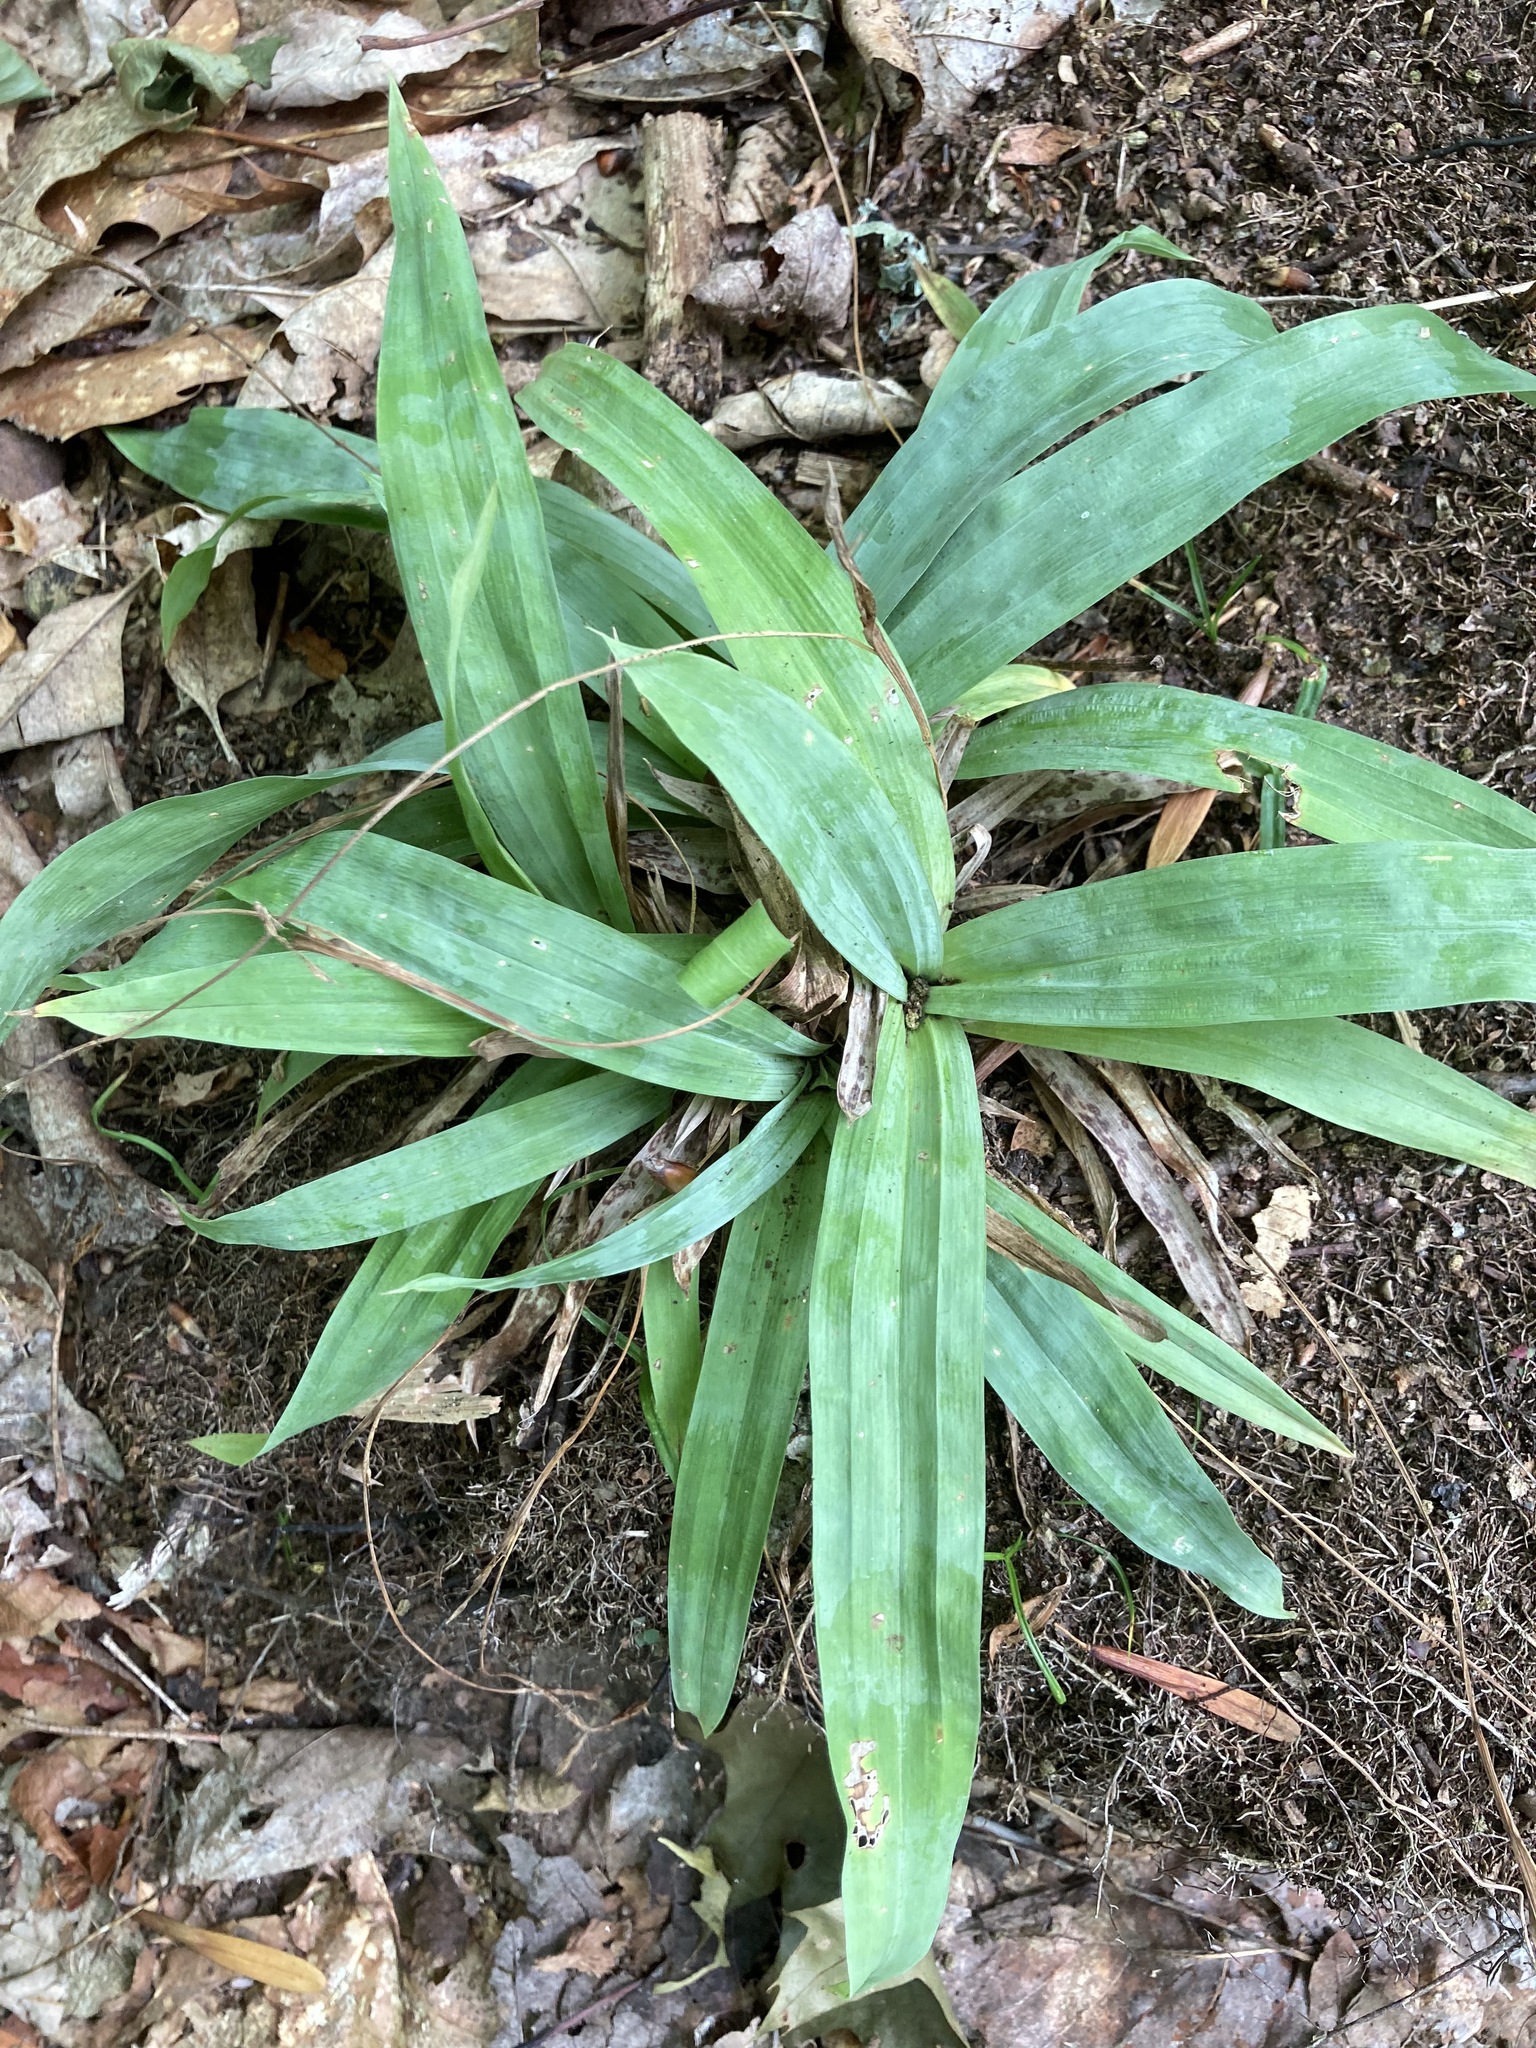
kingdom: Plantae
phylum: Tracheophyta
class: Liliopsida
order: Poales
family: Cyperaceae
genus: Carex
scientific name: Carex platyphylla
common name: Broad-leaved sedge
